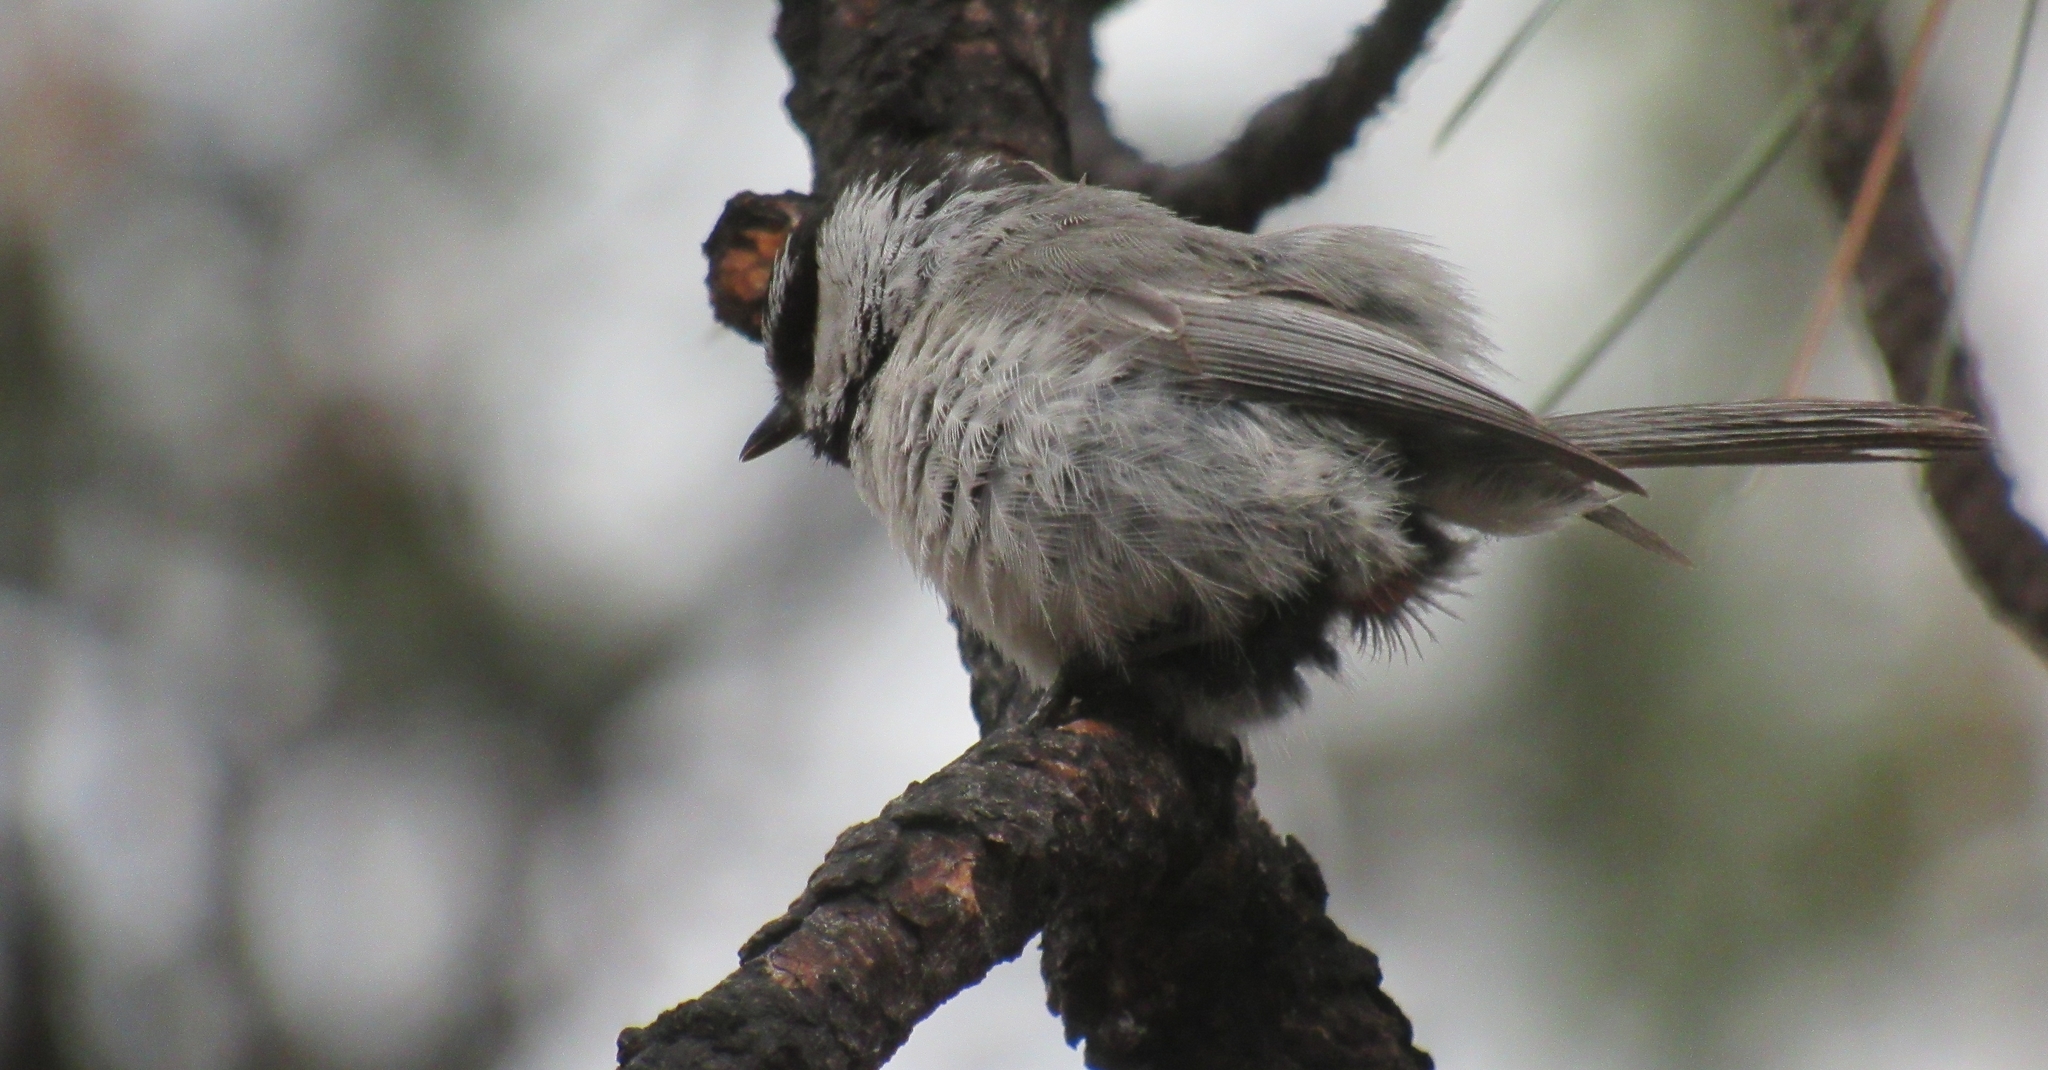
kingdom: Animalia
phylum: Chordata
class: Aves
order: Passeriformes
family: Paridae
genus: Poecile
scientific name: Poecile gambeli
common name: Mountain chickadee
